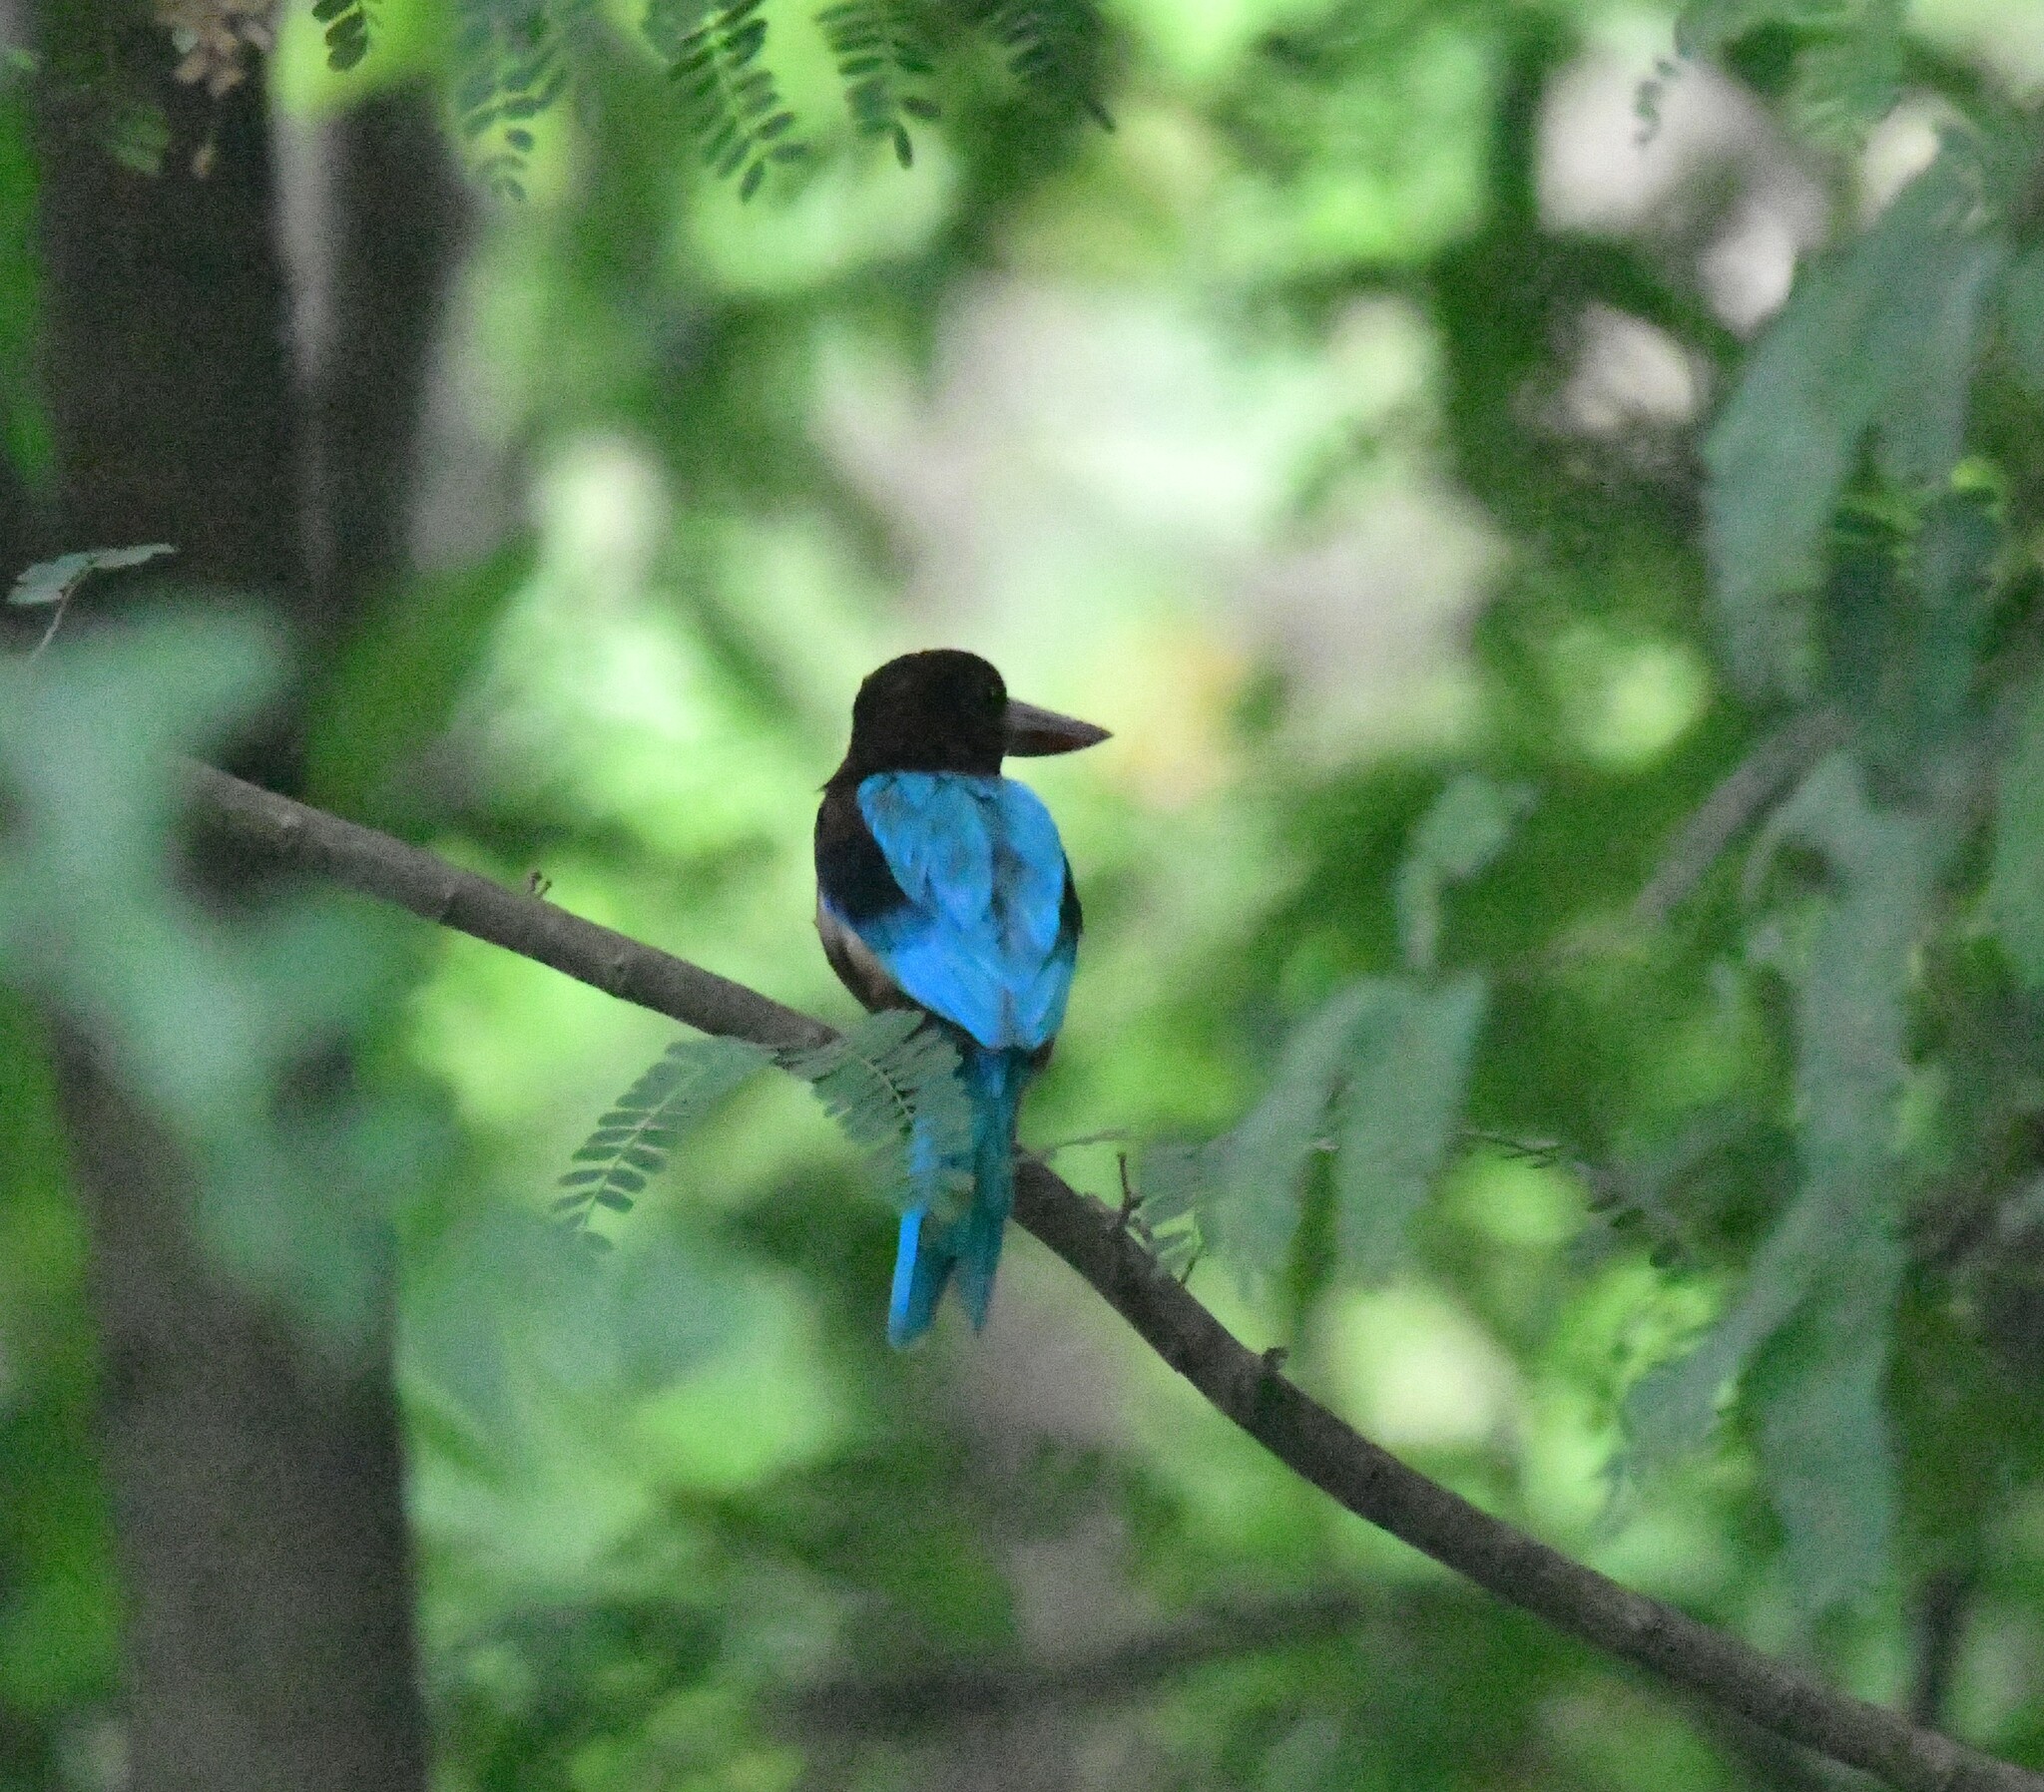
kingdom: Animalia
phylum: Chordata
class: Aves
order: Coraciiformes
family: Alcedinidae
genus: Halcyon
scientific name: Halcyon smyrnensis
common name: White-throated kingfisher
